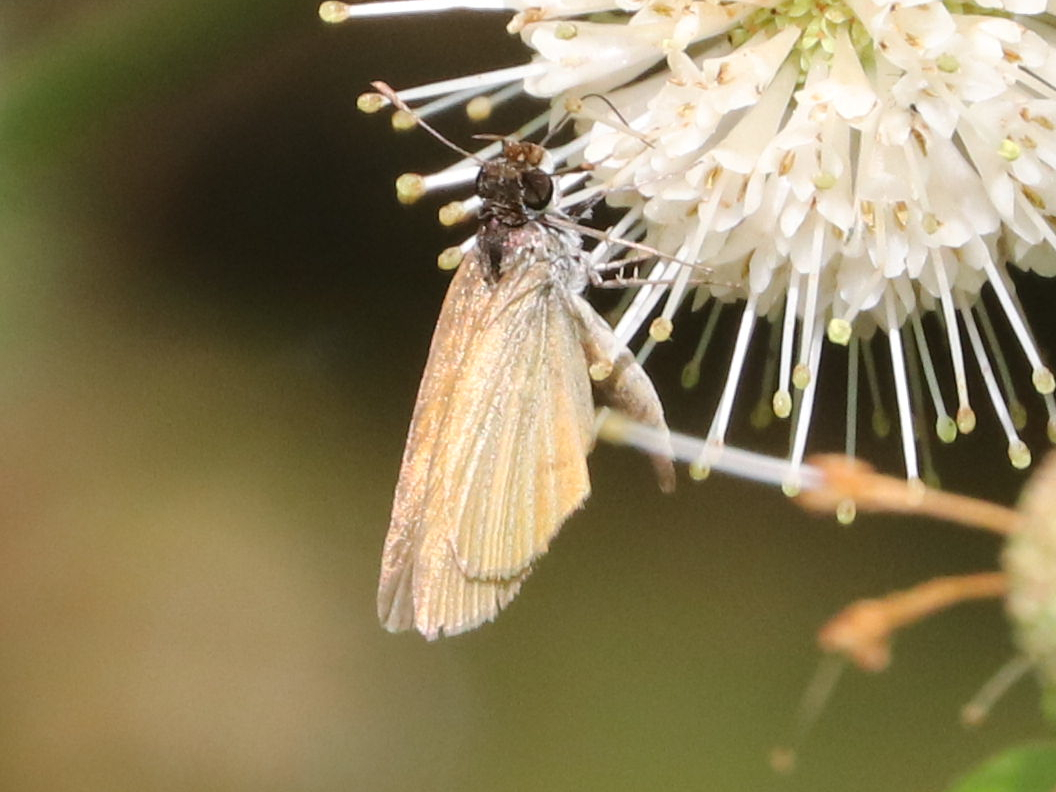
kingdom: Animalia
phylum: Arthropoda
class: Insecta
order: Lepidoptera
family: Hesperiidae
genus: Ancyloxypha
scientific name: Ancyloxypha numitor
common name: Least skipper
